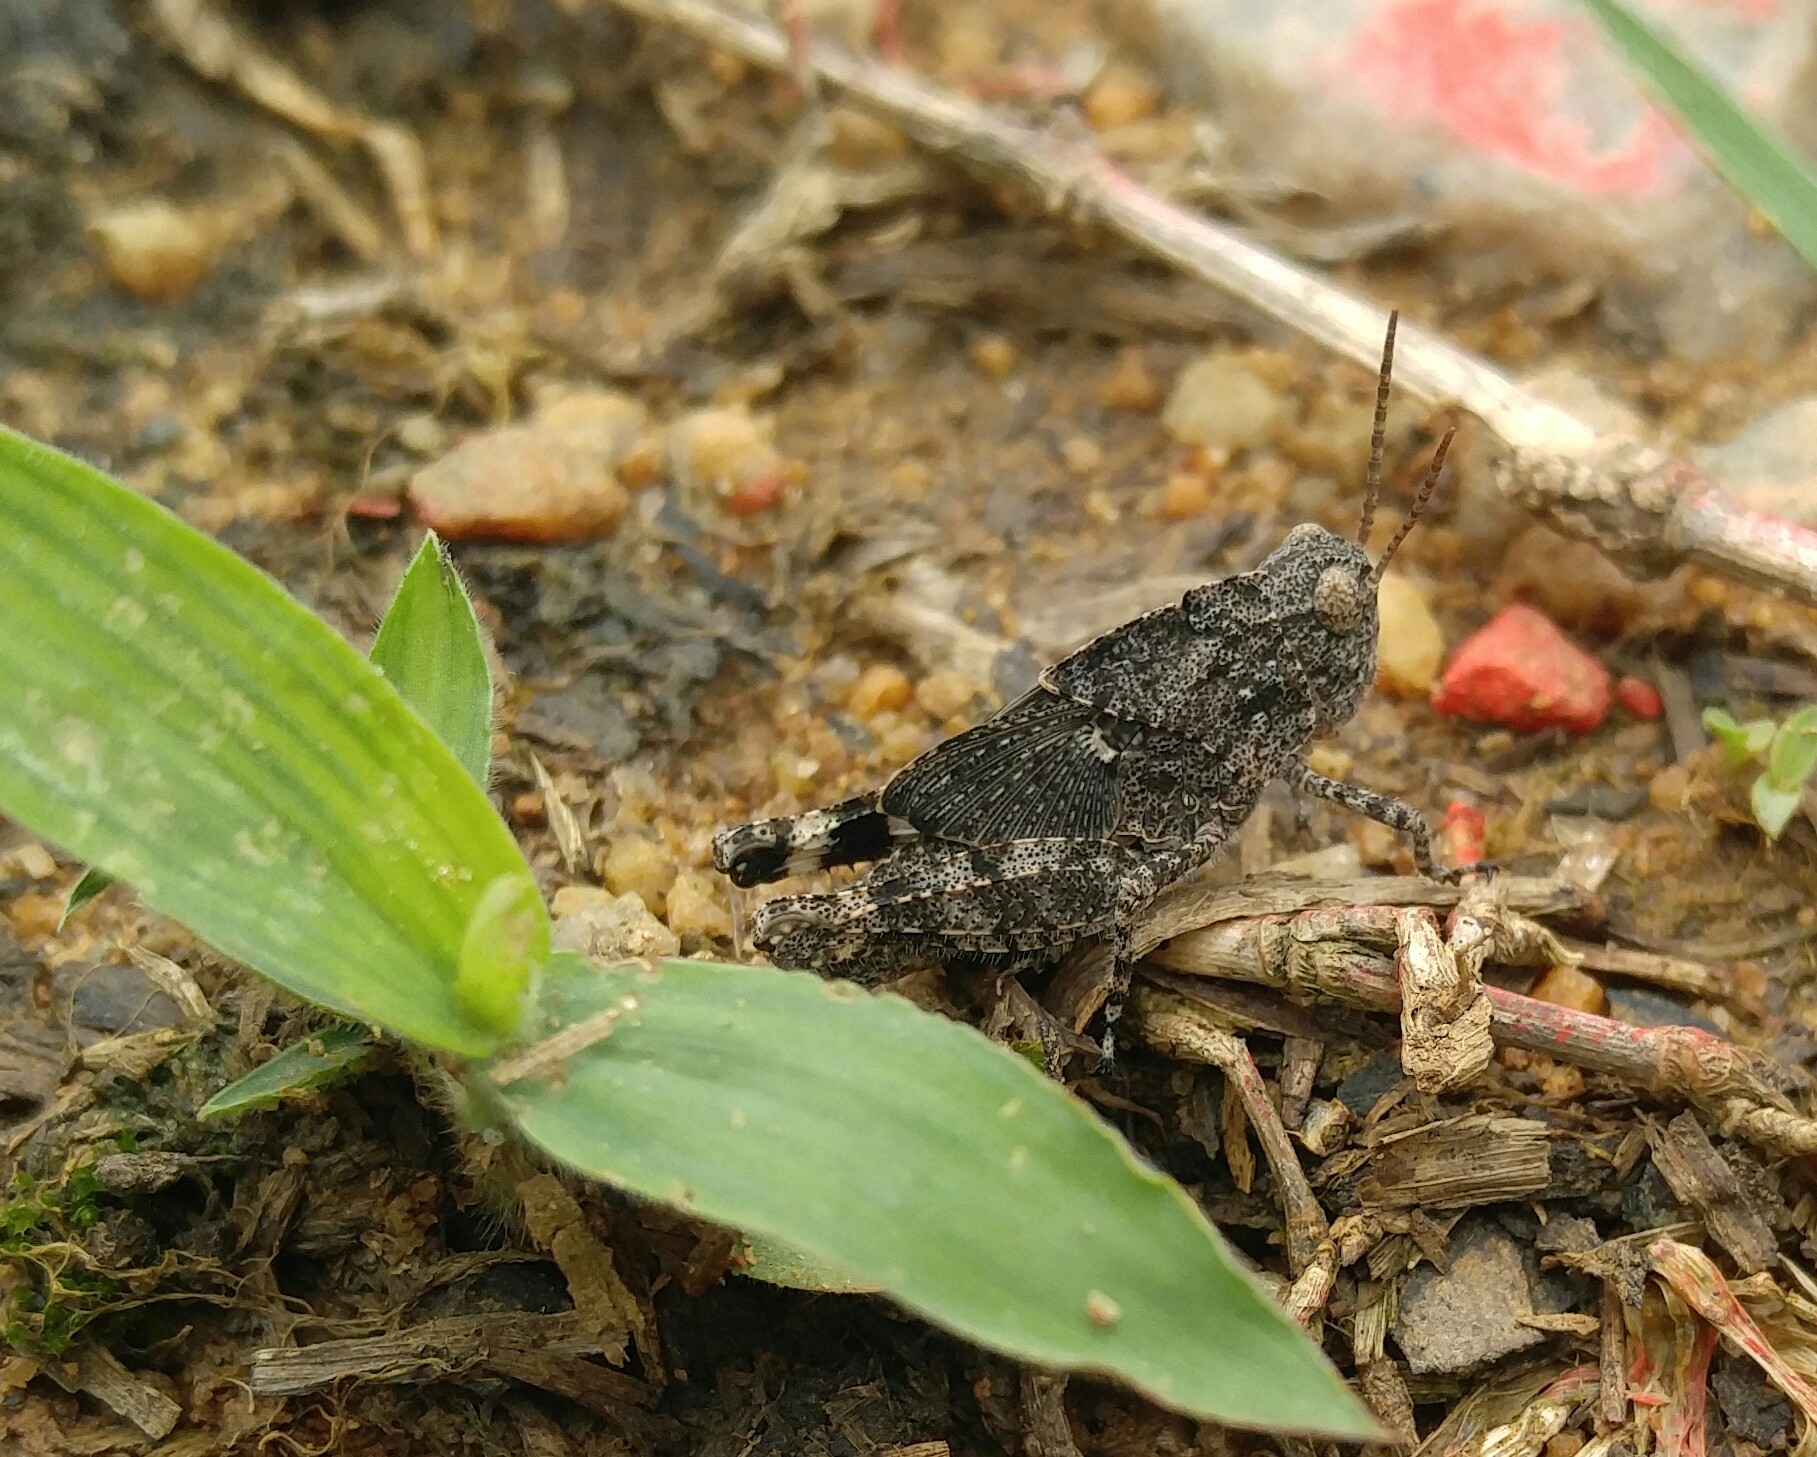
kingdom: Animalia
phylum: Arthropoda
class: Insecta
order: Orthoptera
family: Acrididae
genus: Dissosteira
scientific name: Dissosteira carolina
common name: Carolina grasshopper
